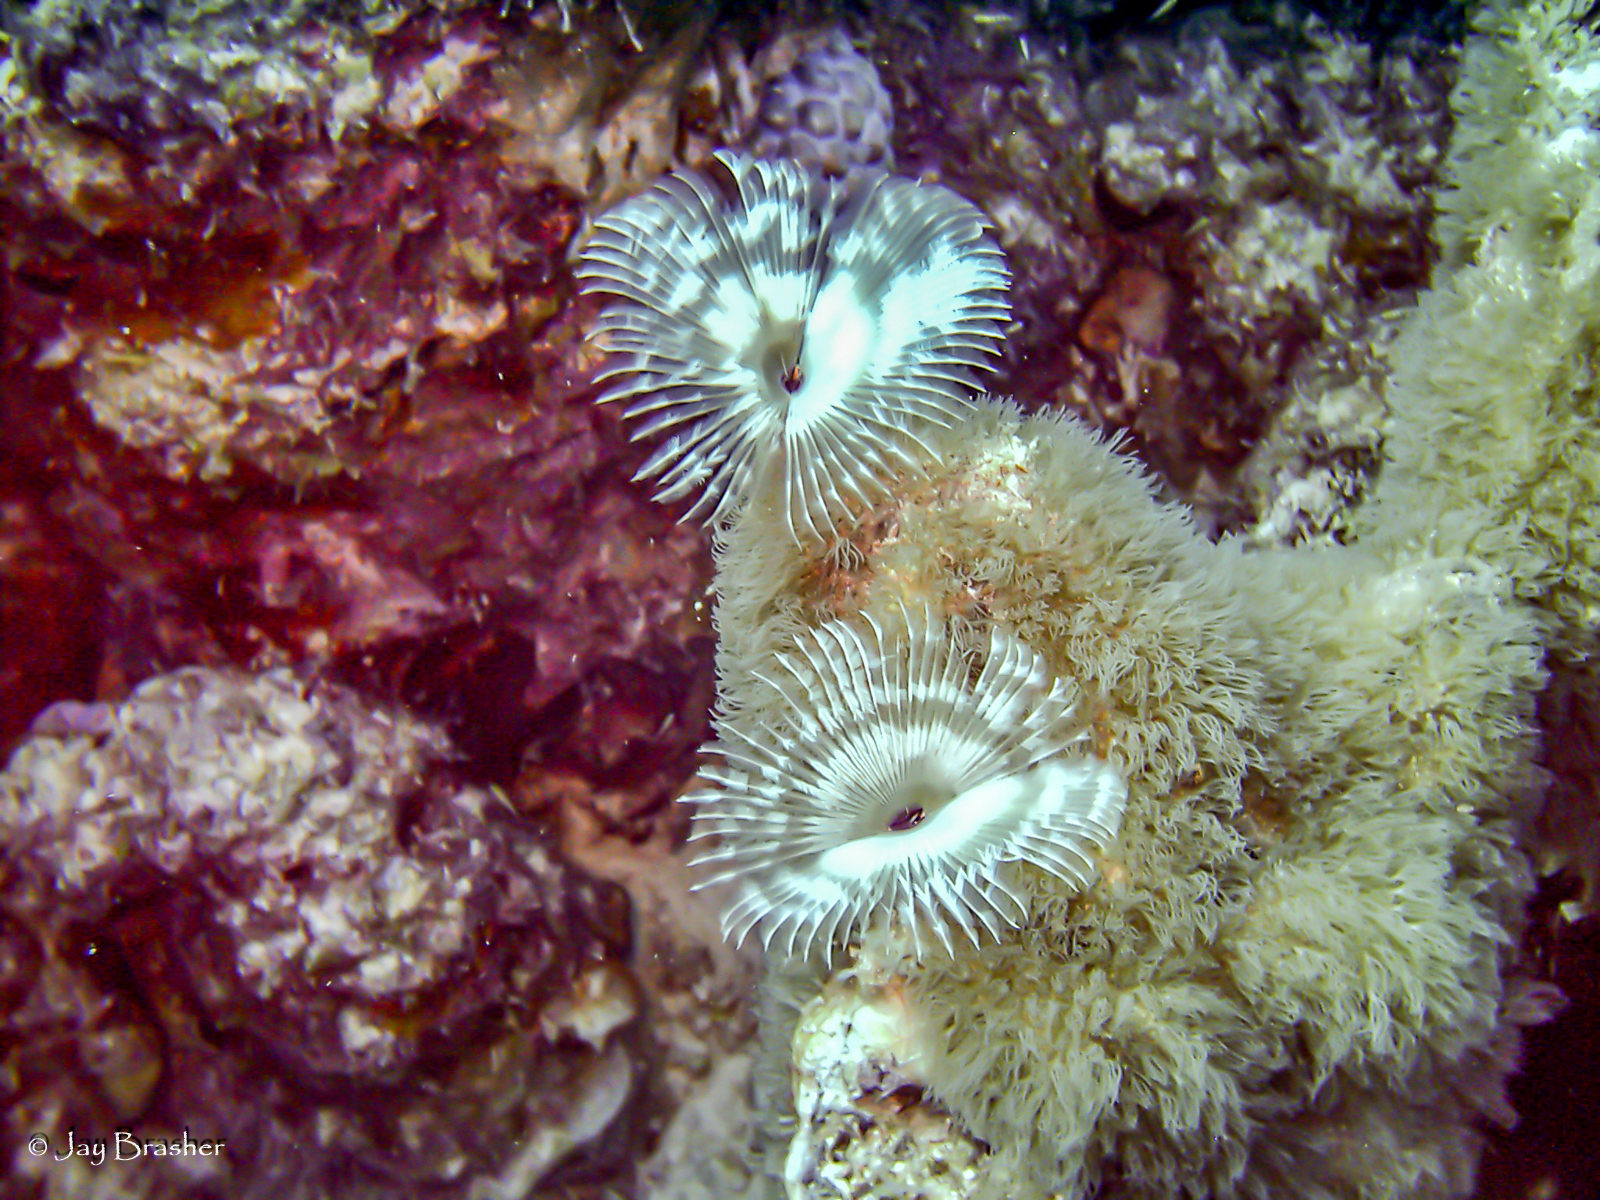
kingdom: Animalia
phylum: Cnidaria
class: Anthozoa
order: Scleralcyonacea
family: Erythropodiidae
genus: Erythropodium
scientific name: Erythropodium caribaeorum
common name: Encrusting gorgonian
